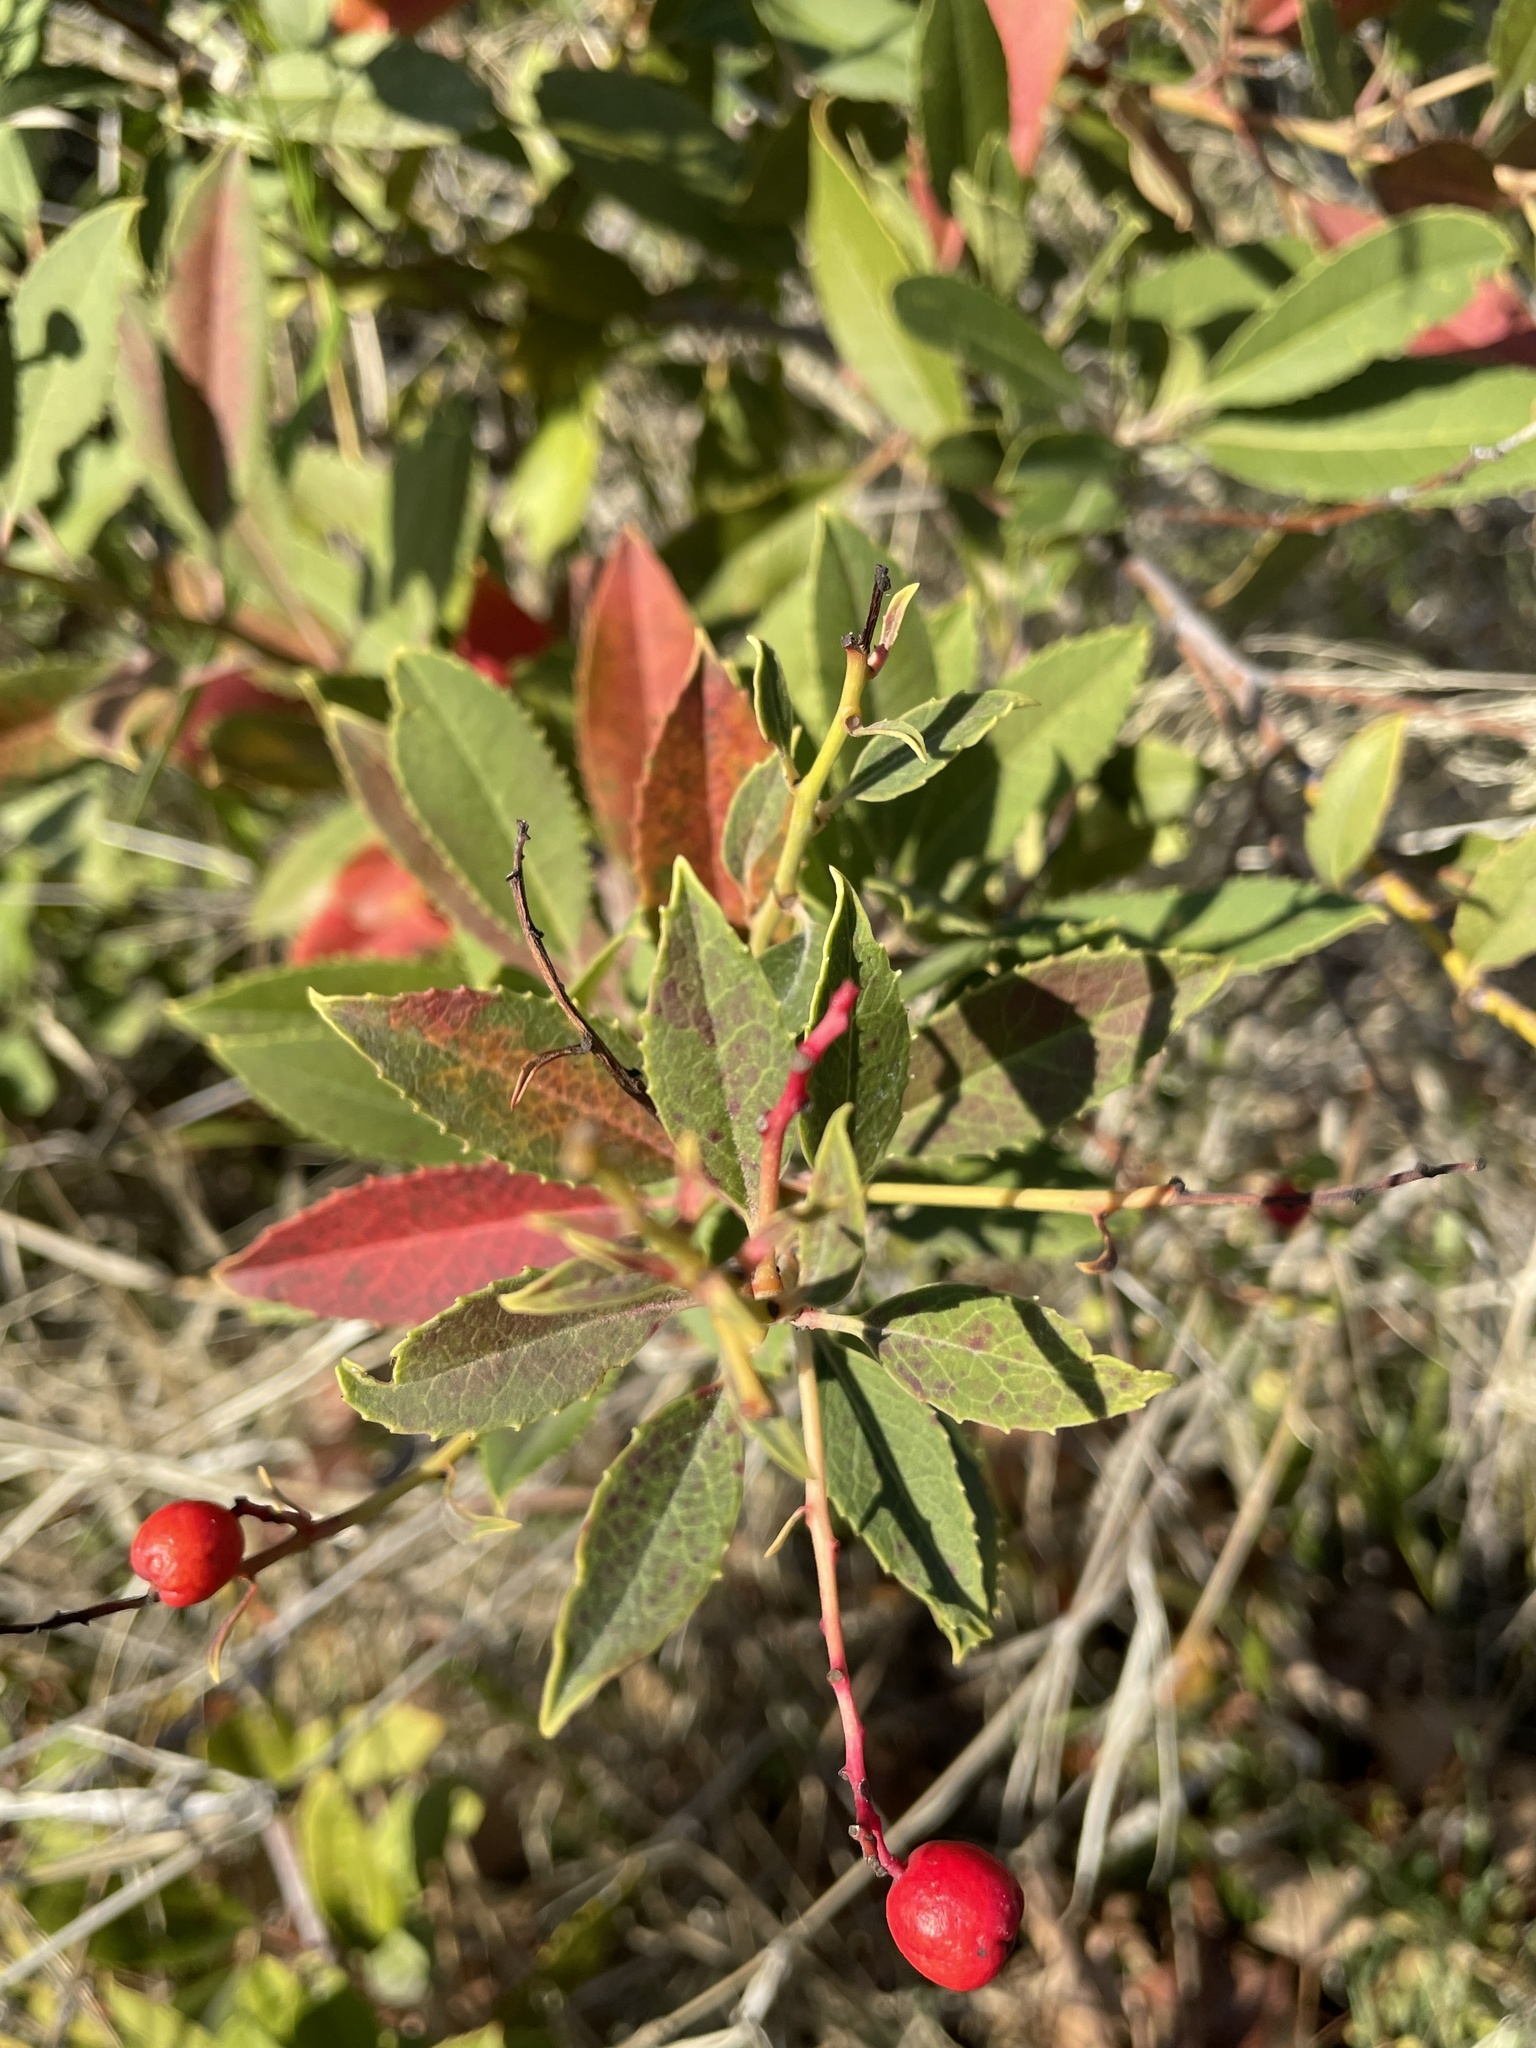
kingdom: Plantae
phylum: Tracheophyta
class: Magnoliopsida
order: Rosales
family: Rosaceae
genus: Heteromeles
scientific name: Heteromeles arbutifolia
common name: California-holly
